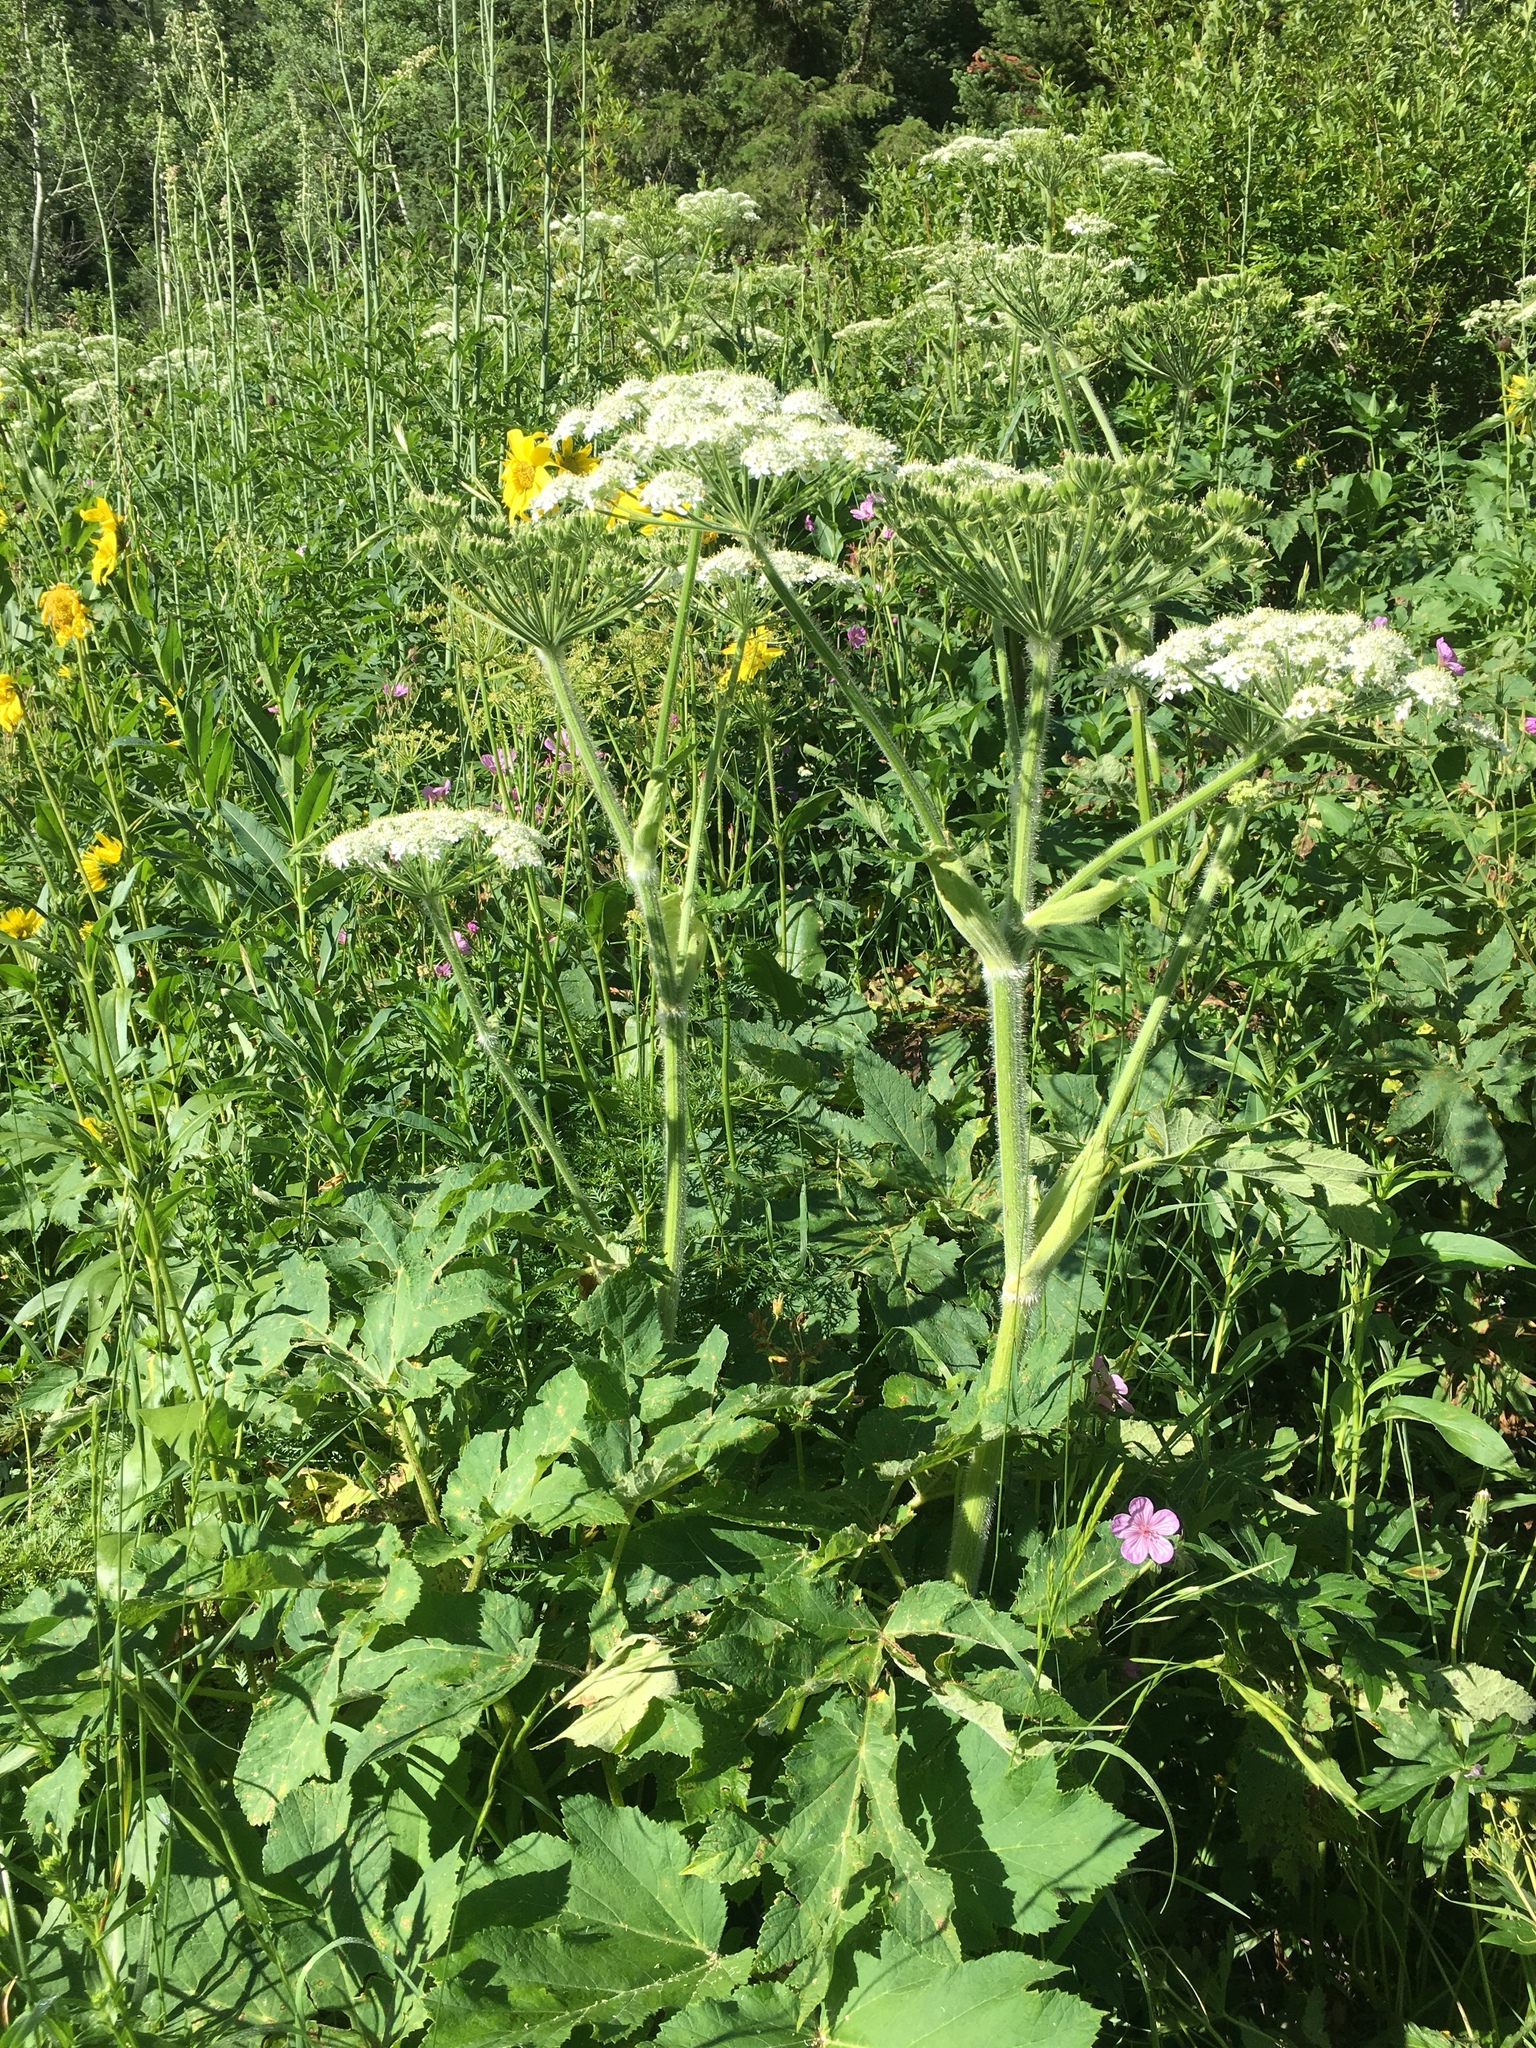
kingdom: Plantae
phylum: Tracheophyta
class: Magnoliopsida
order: Apiales
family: Apiaceae
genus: Heracleum
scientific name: Heracleum maximum
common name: American cow parsnip
